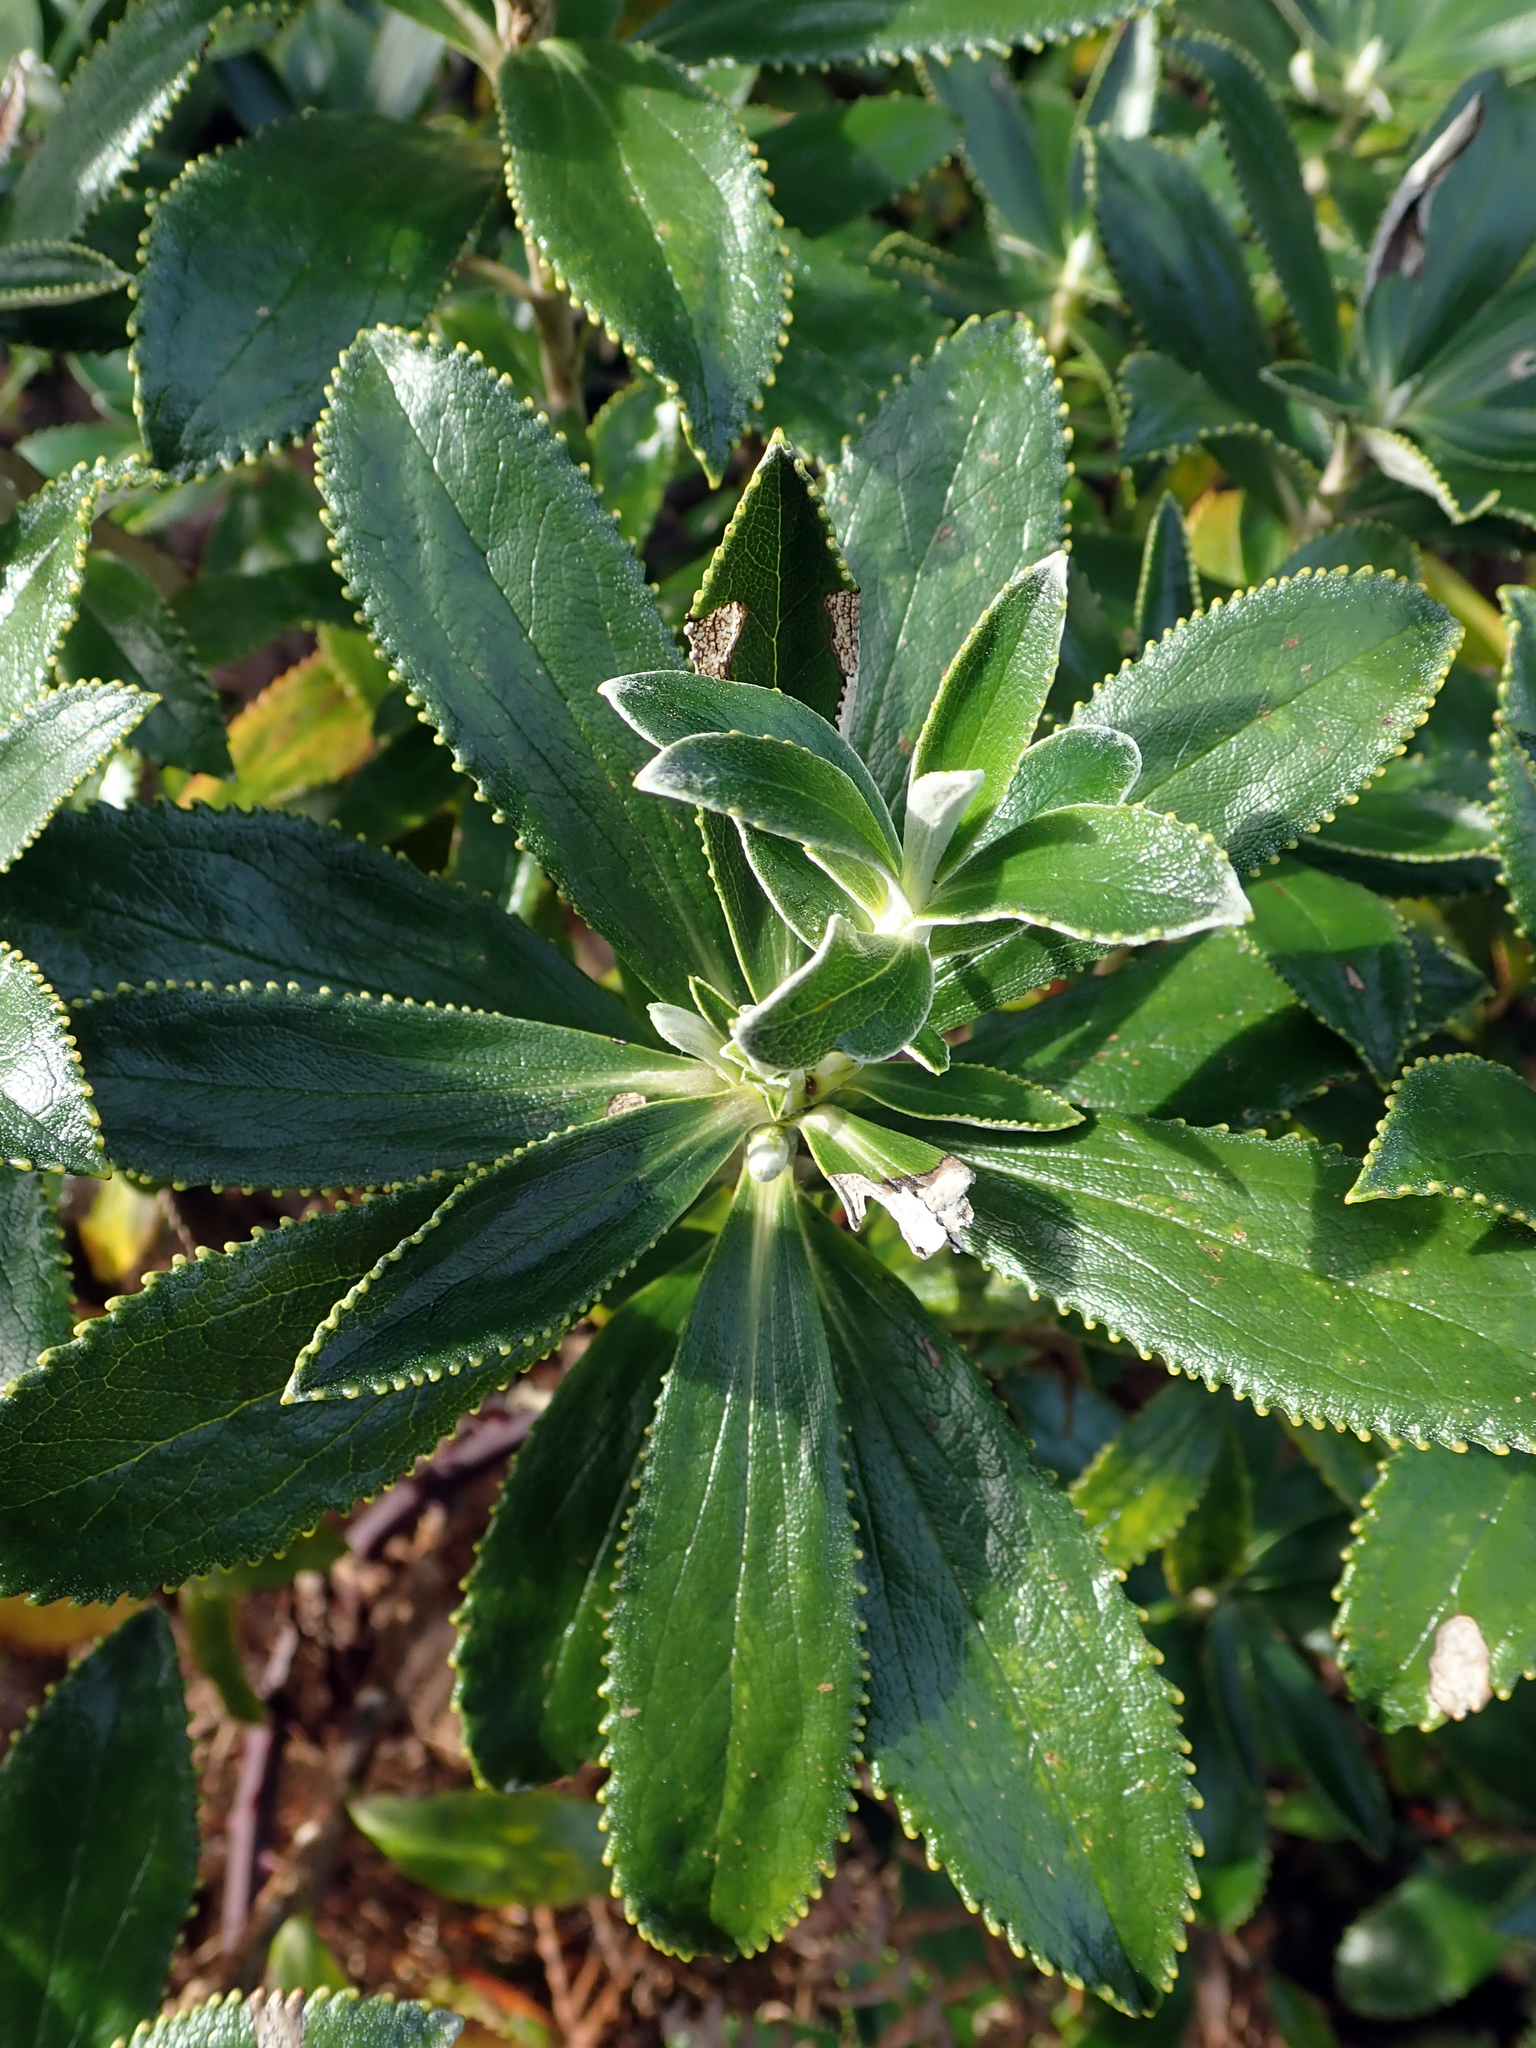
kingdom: Plantae
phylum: Tracheophyta
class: Magnoliopsida
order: Asterales
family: Asteraceae
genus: Macrolearia
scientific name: Macrolearia chathamica
